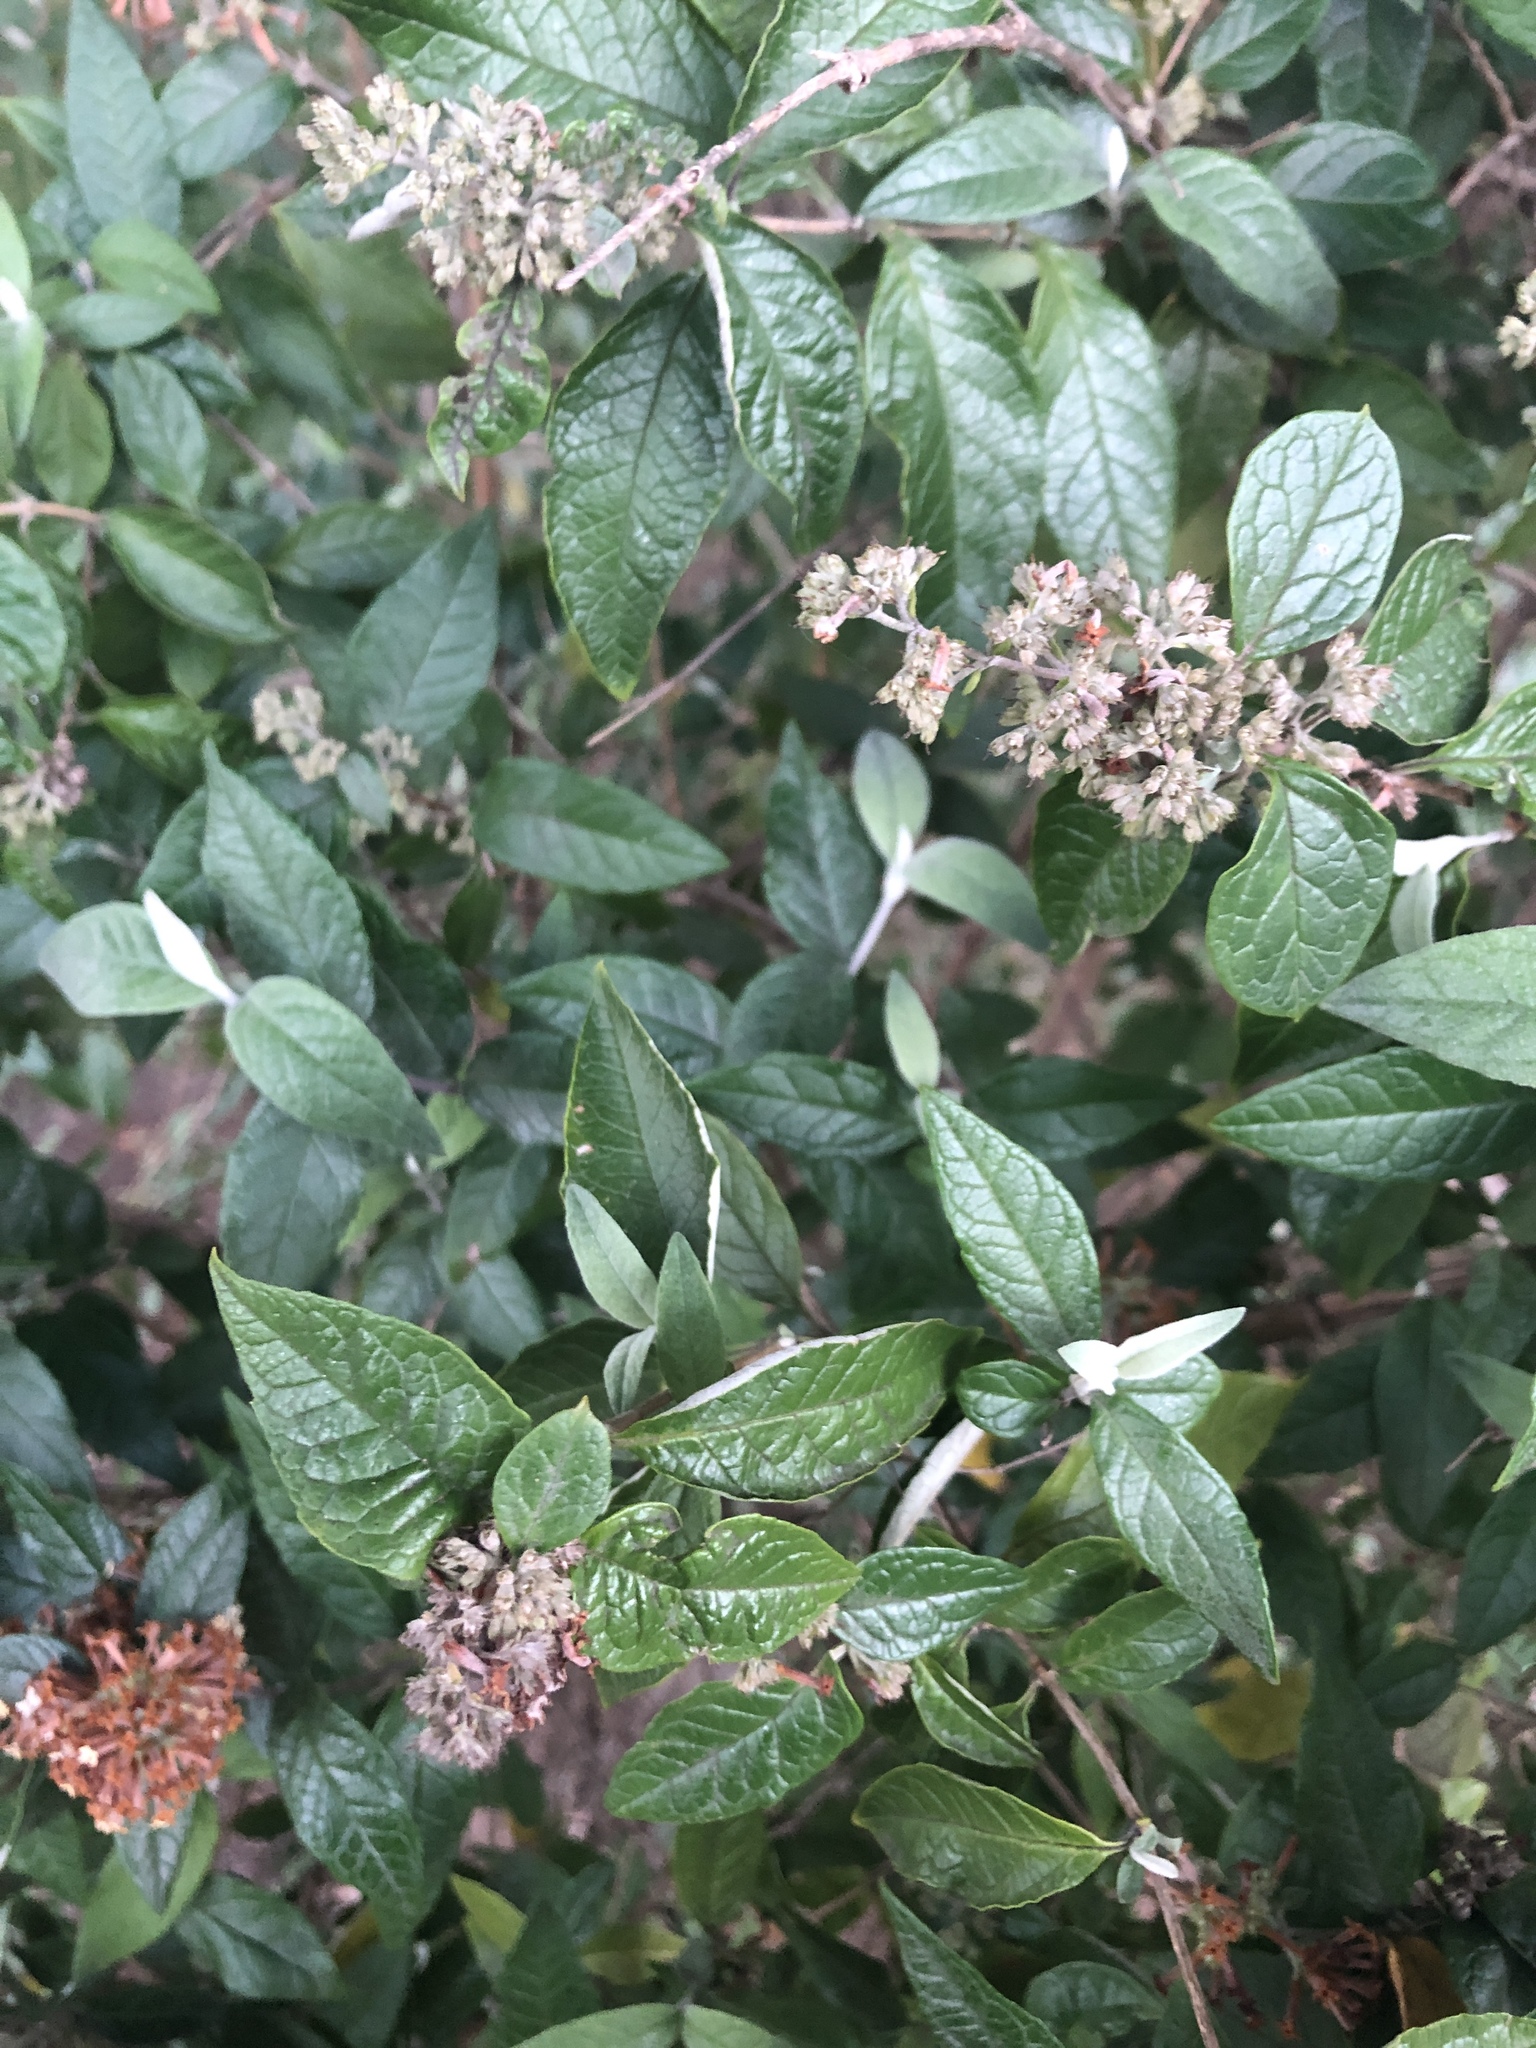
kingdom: Plantae
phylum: Tracheophyta
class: Magnoliopsida
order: Lamiales
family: Scrophulariaceae
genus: Buddleja
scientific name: Buddleja auriculata
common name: Weeping sagewood
